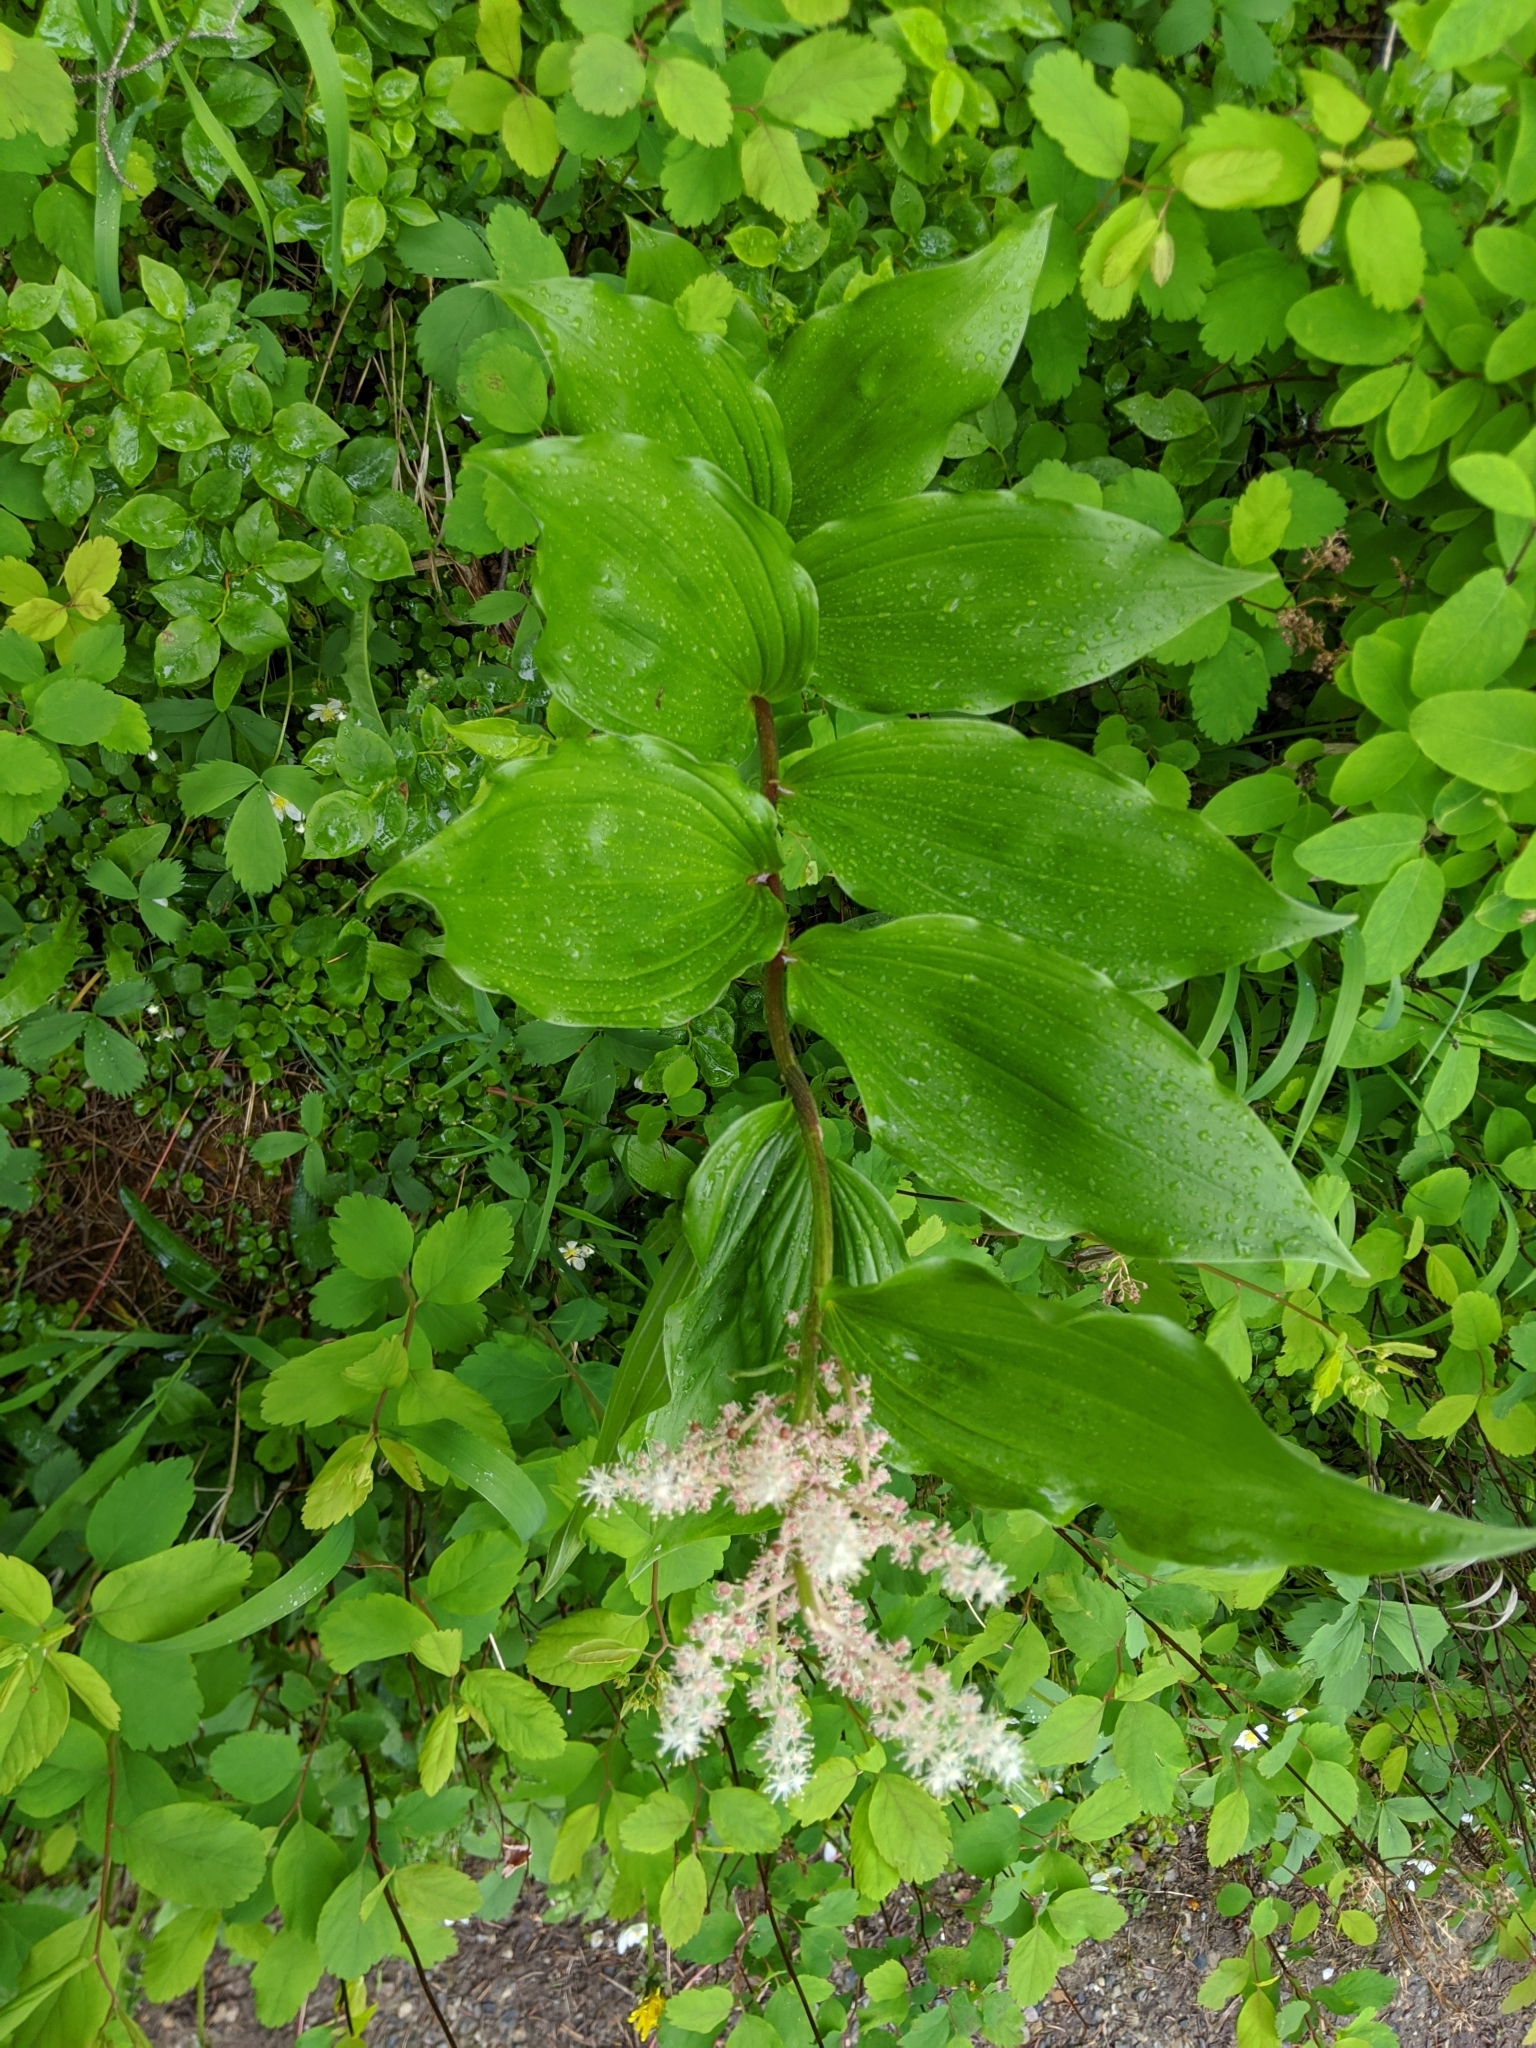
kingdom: Plantae
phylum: Tracheophyta
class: Liliopsida
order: Asparagales
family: Asparagaceae
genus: Maianthemum
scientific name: Maianthemum racemosum
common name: False spikenard
